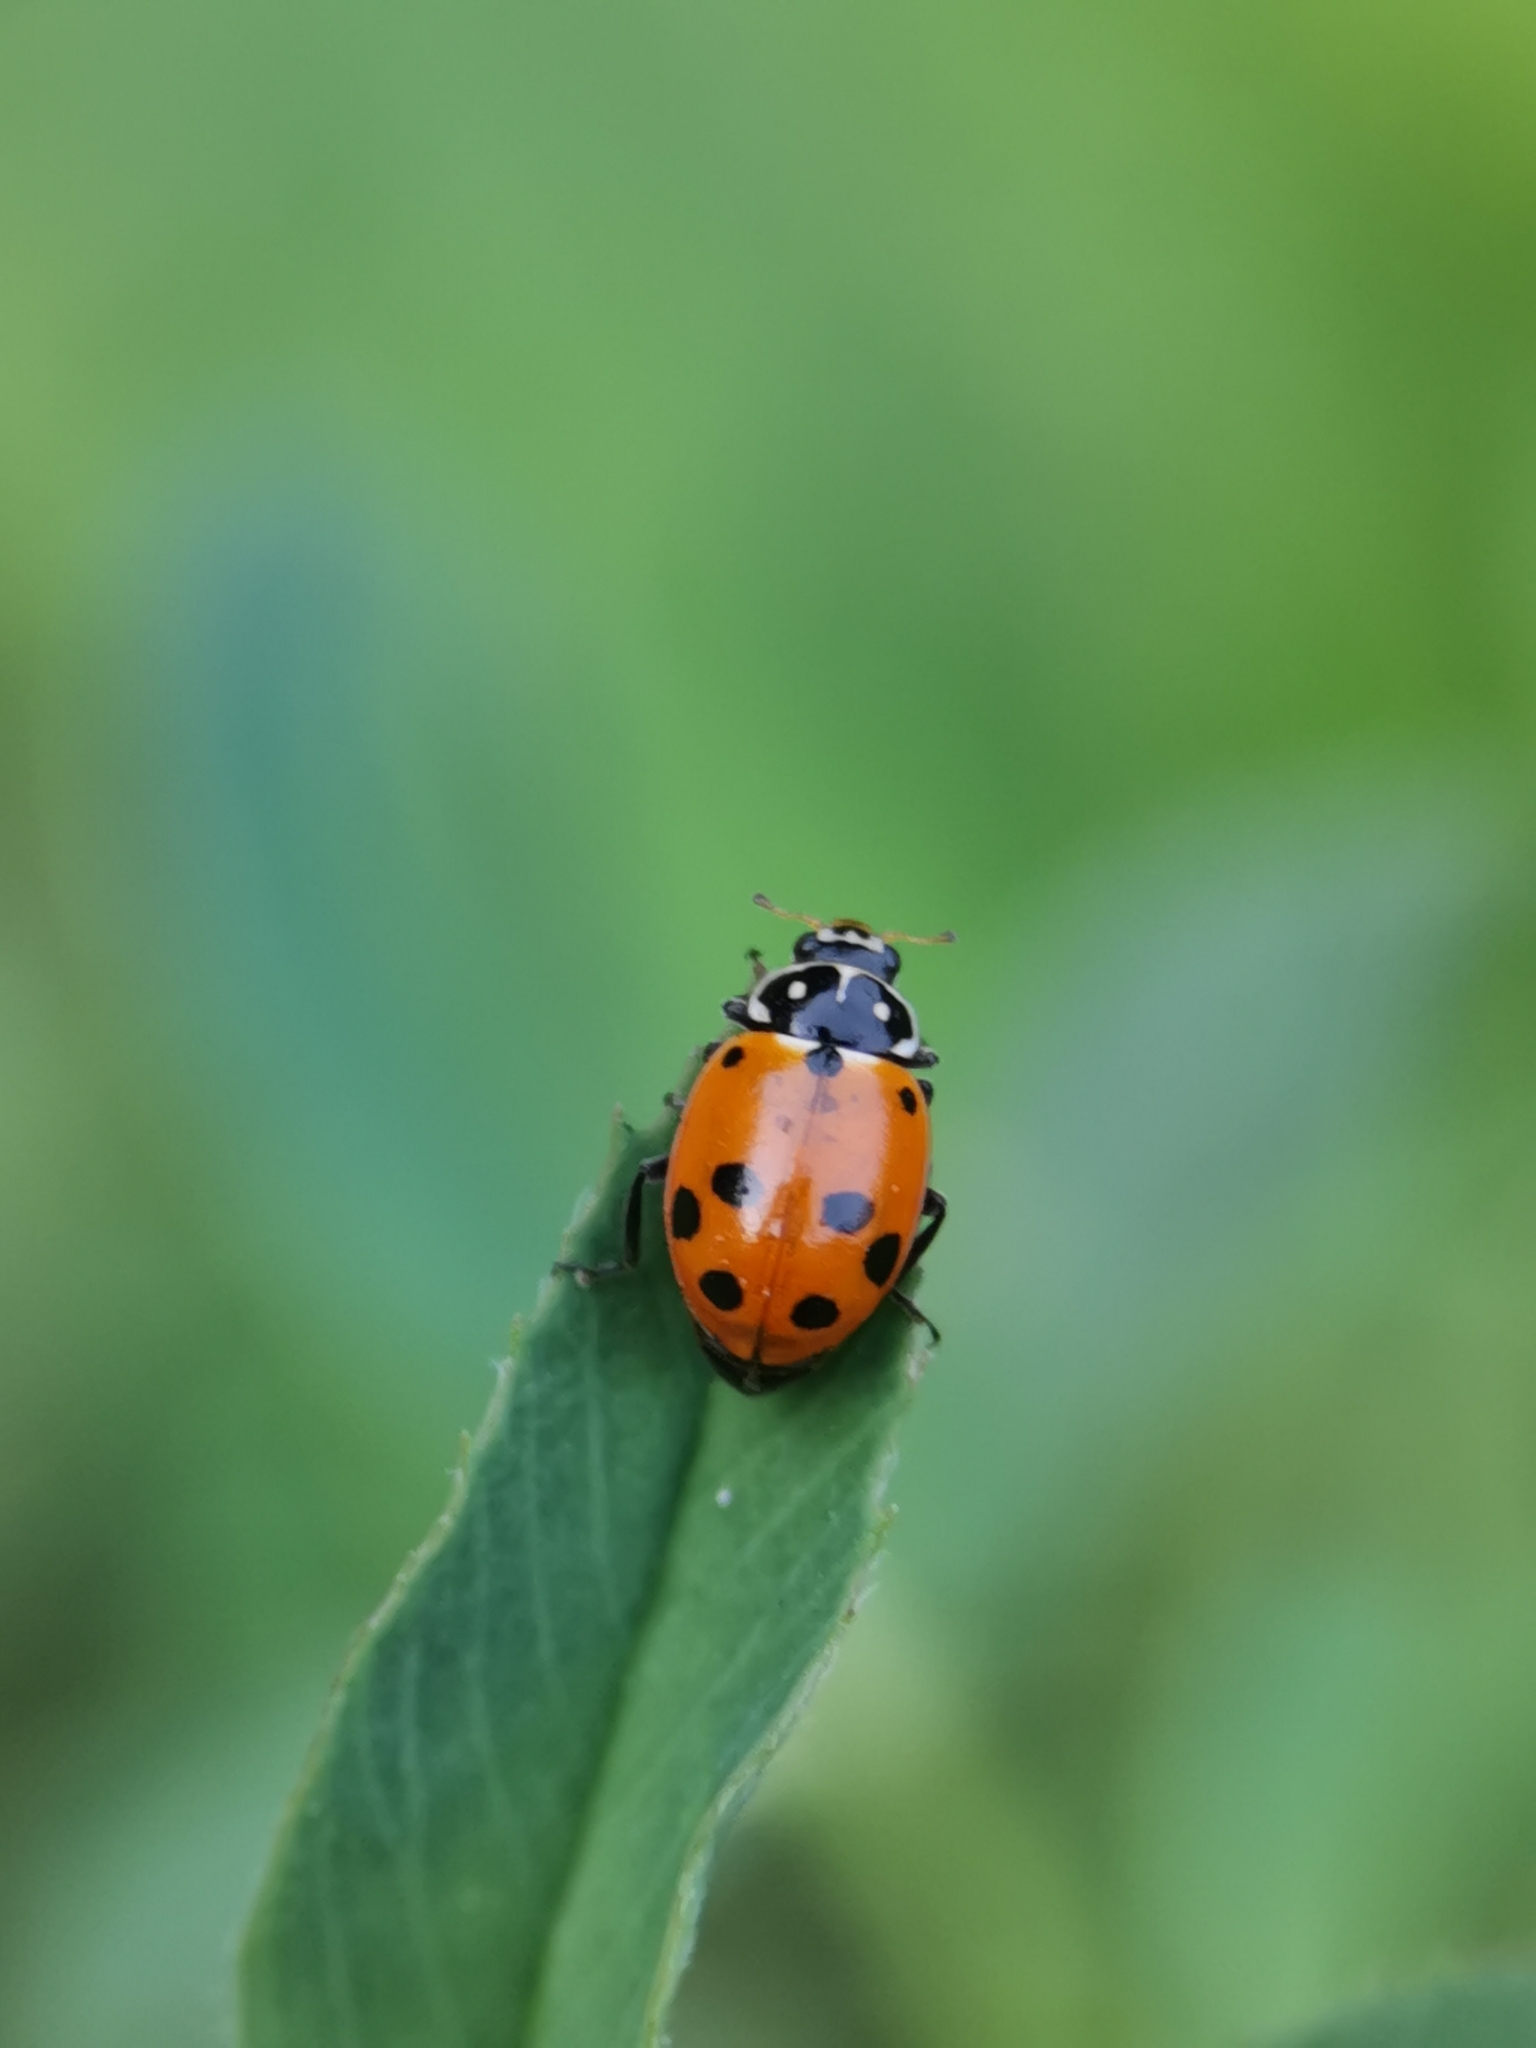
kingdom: Animalia
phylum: Arthropoda
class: Insecta
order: Coleoptera
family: Coccinellidae
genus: Hippodamia
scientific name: Hippodamia variegata
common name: Ladybird beetle
